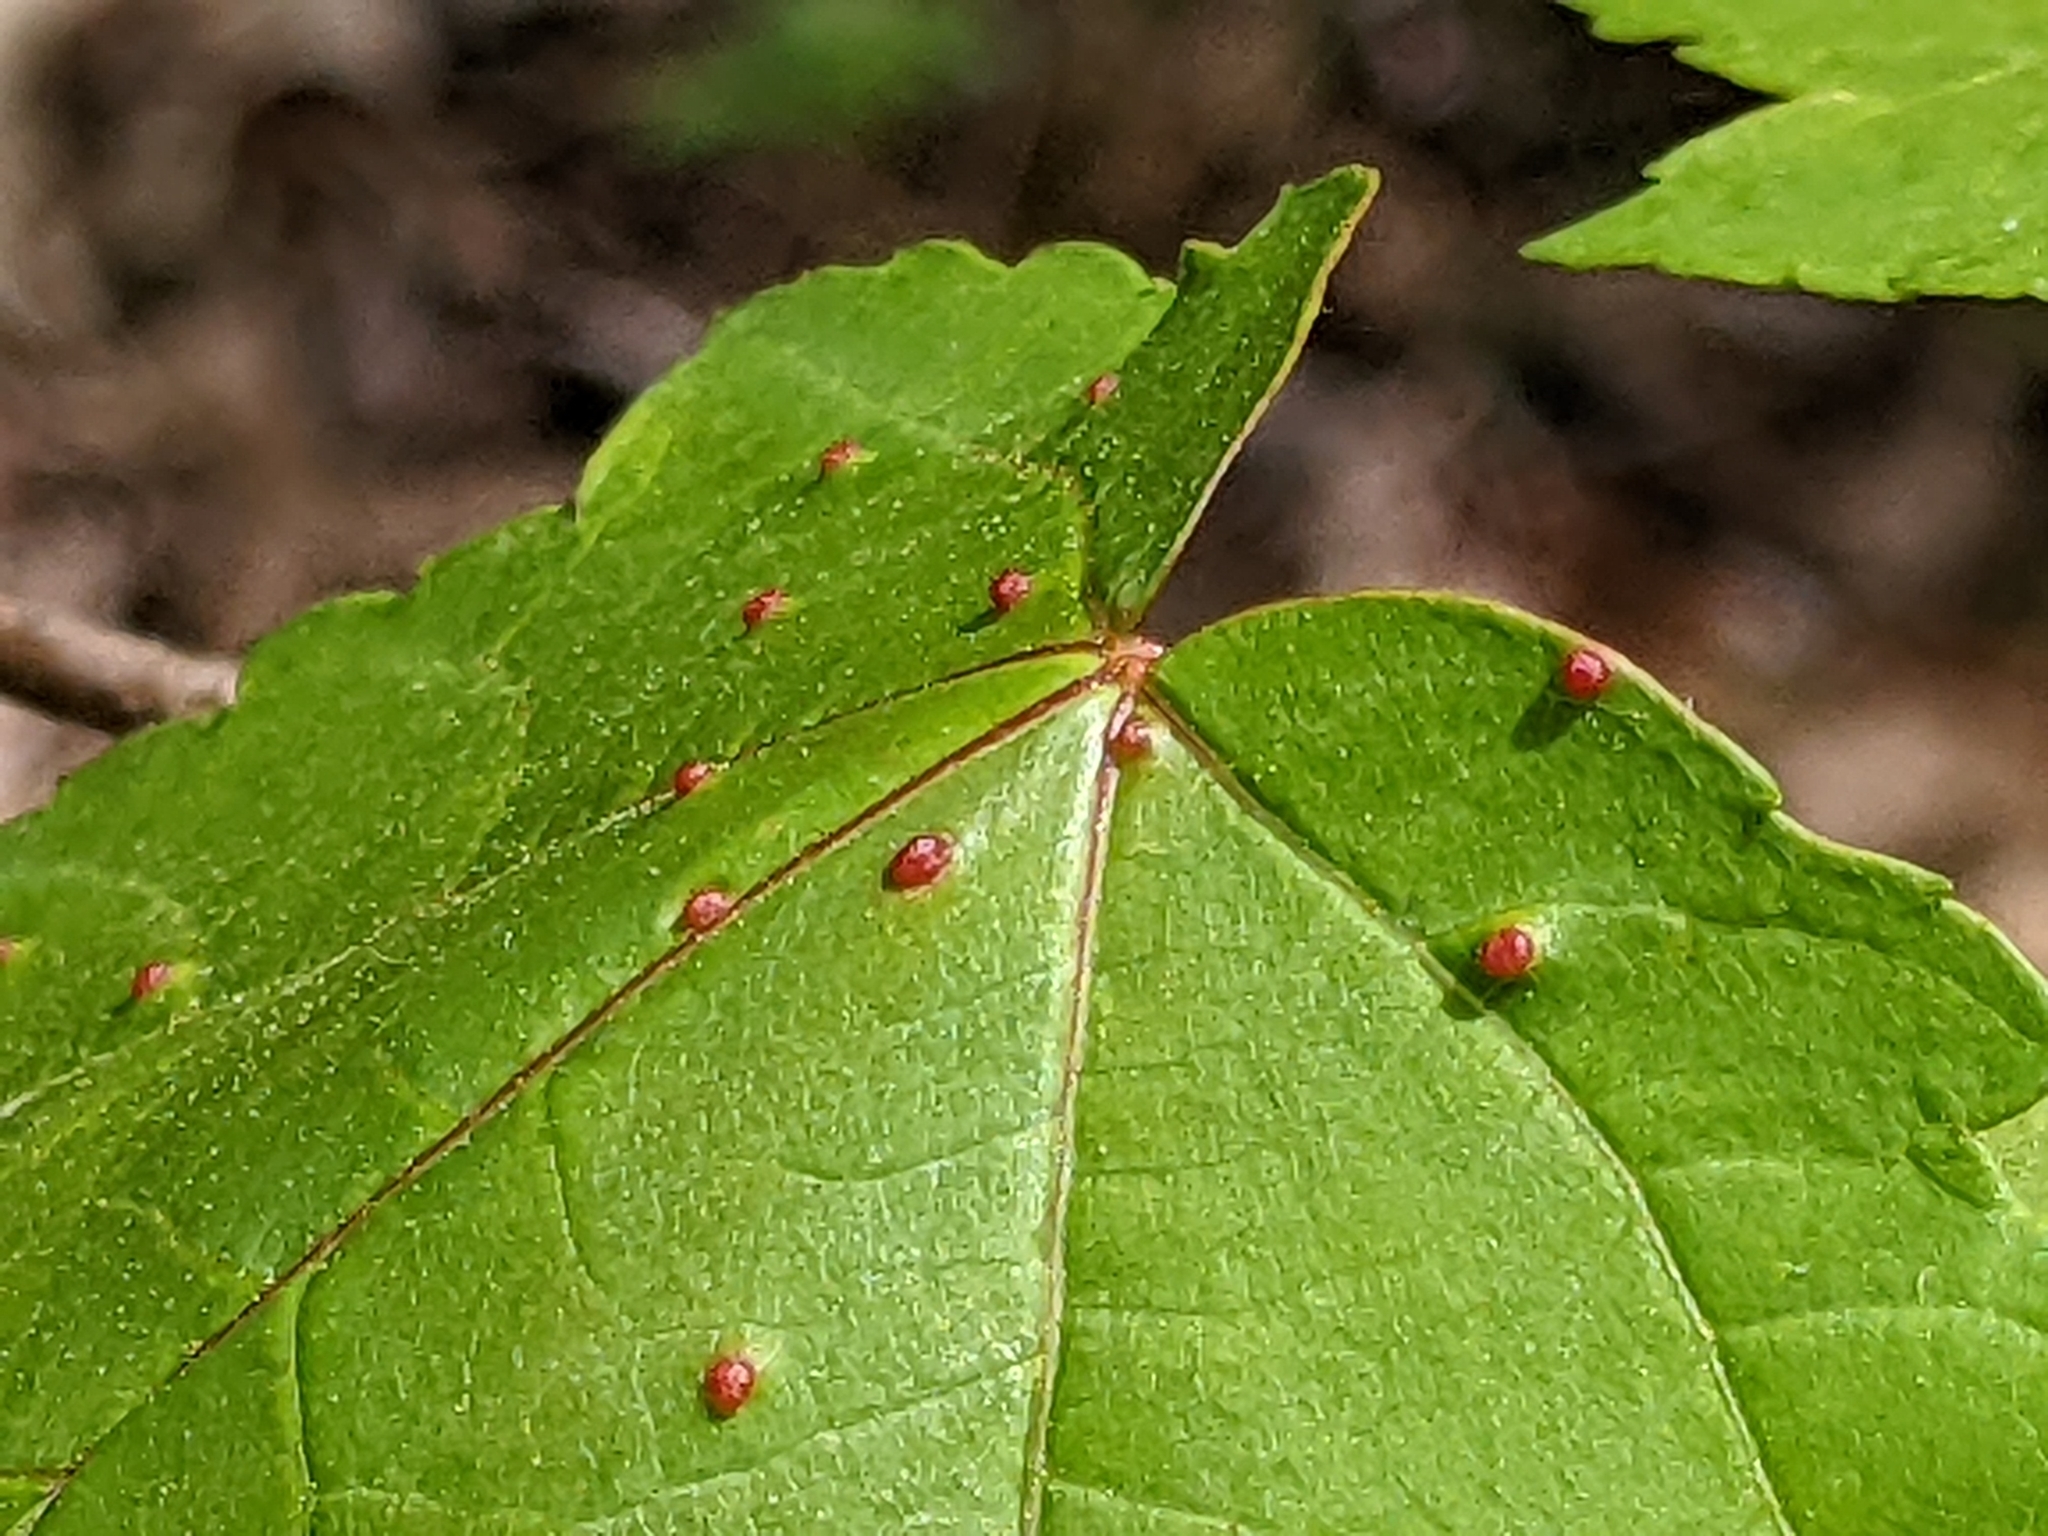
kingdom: Animalia
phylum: Arthropoda
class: Arachnida
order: Trombidiformes
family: Eriophyidae
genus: Vasates
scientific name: Vasates quadripedes
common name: Maple bladder gall mite
